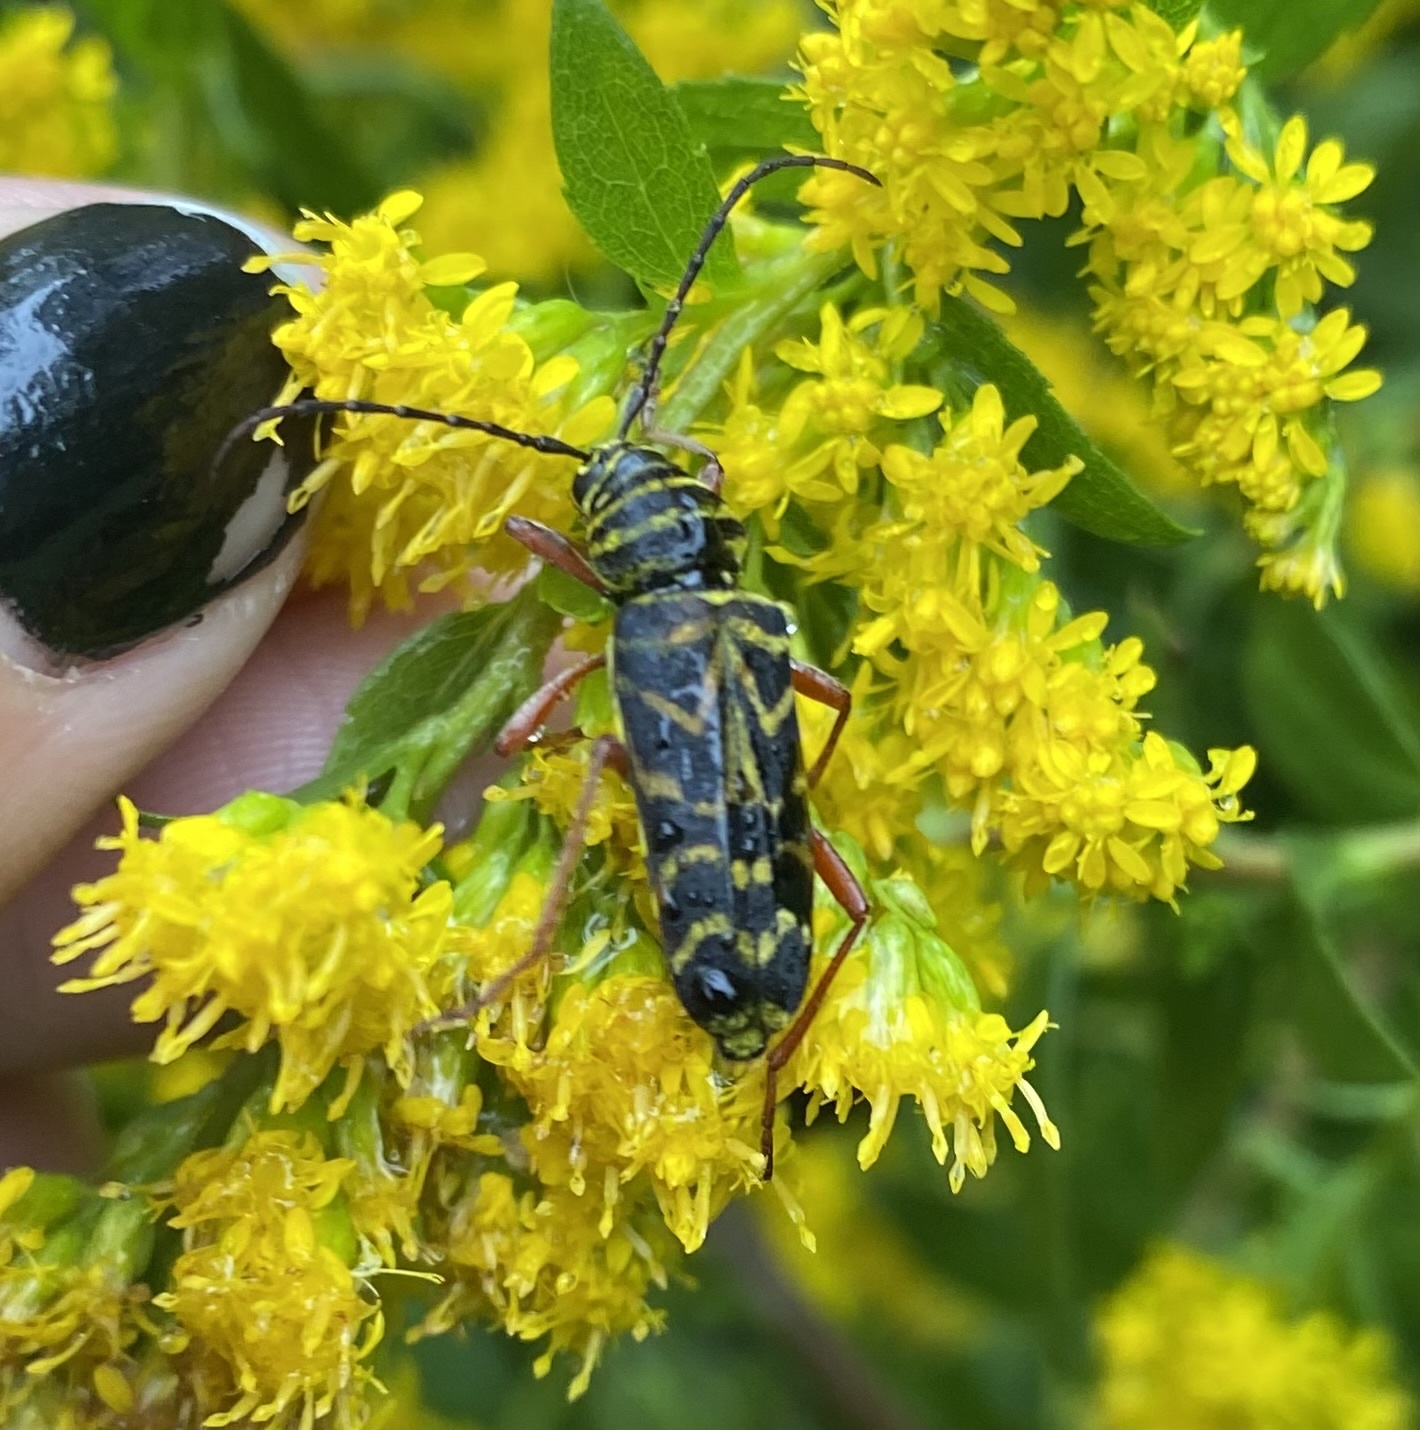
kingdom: Animalia
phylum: Arthropoda
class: Insecta
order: Coleoptera
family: Cerambycidae
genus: Megacyllene
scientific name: Megacyllene robiniae
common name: Locust borer
